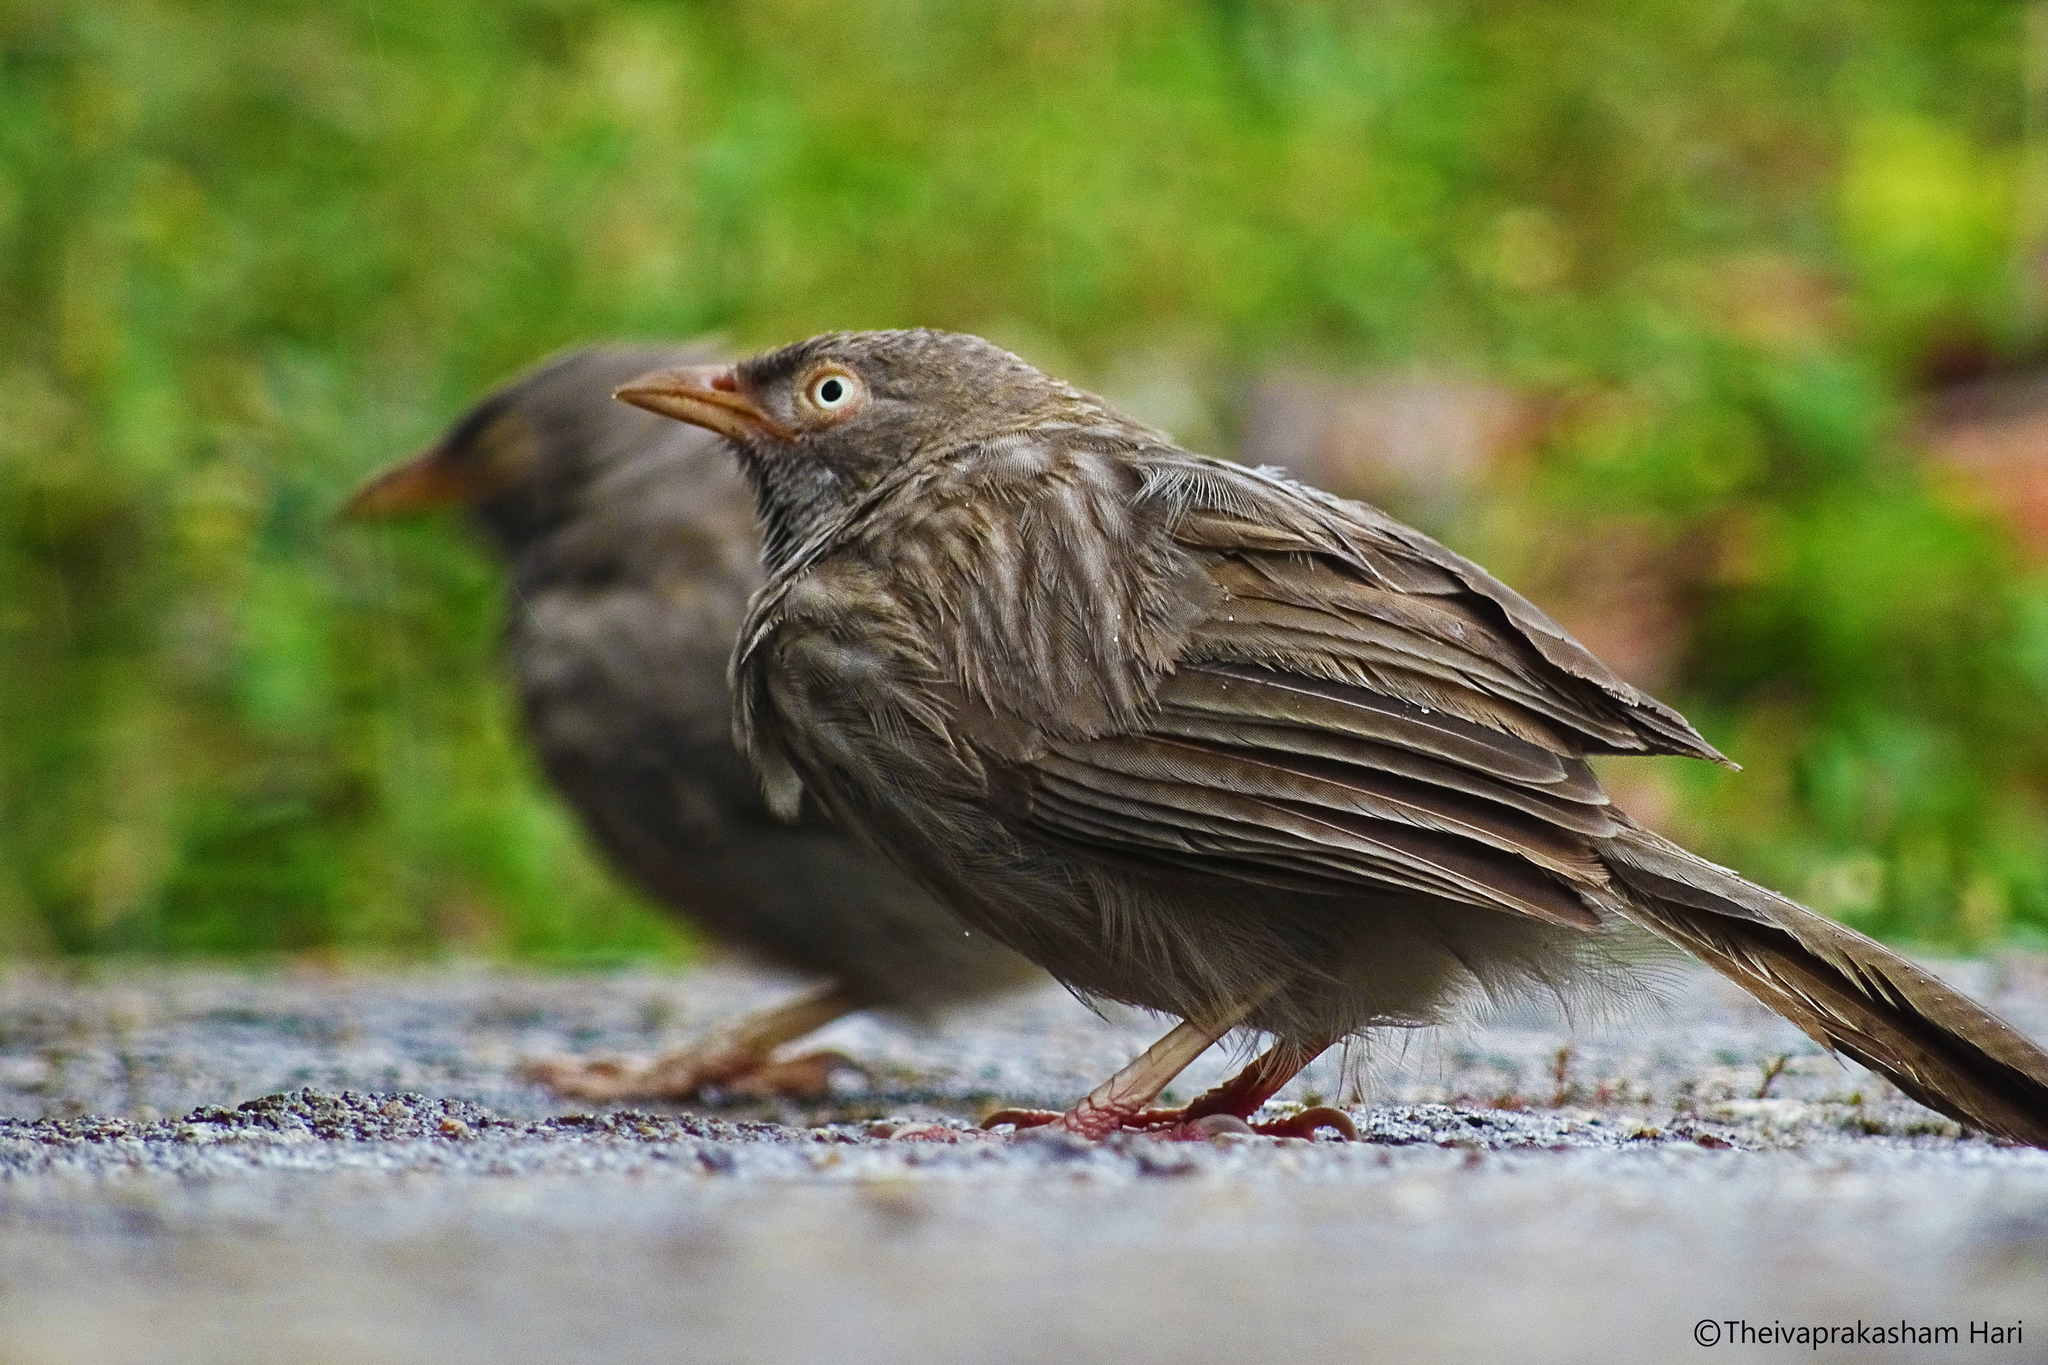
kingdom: Animalia
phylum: Chordata
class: Aves
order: Passeriformes
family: Leiothrichidae
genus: Turdoides
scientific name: Turdoides striata
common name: Jungle babbler
